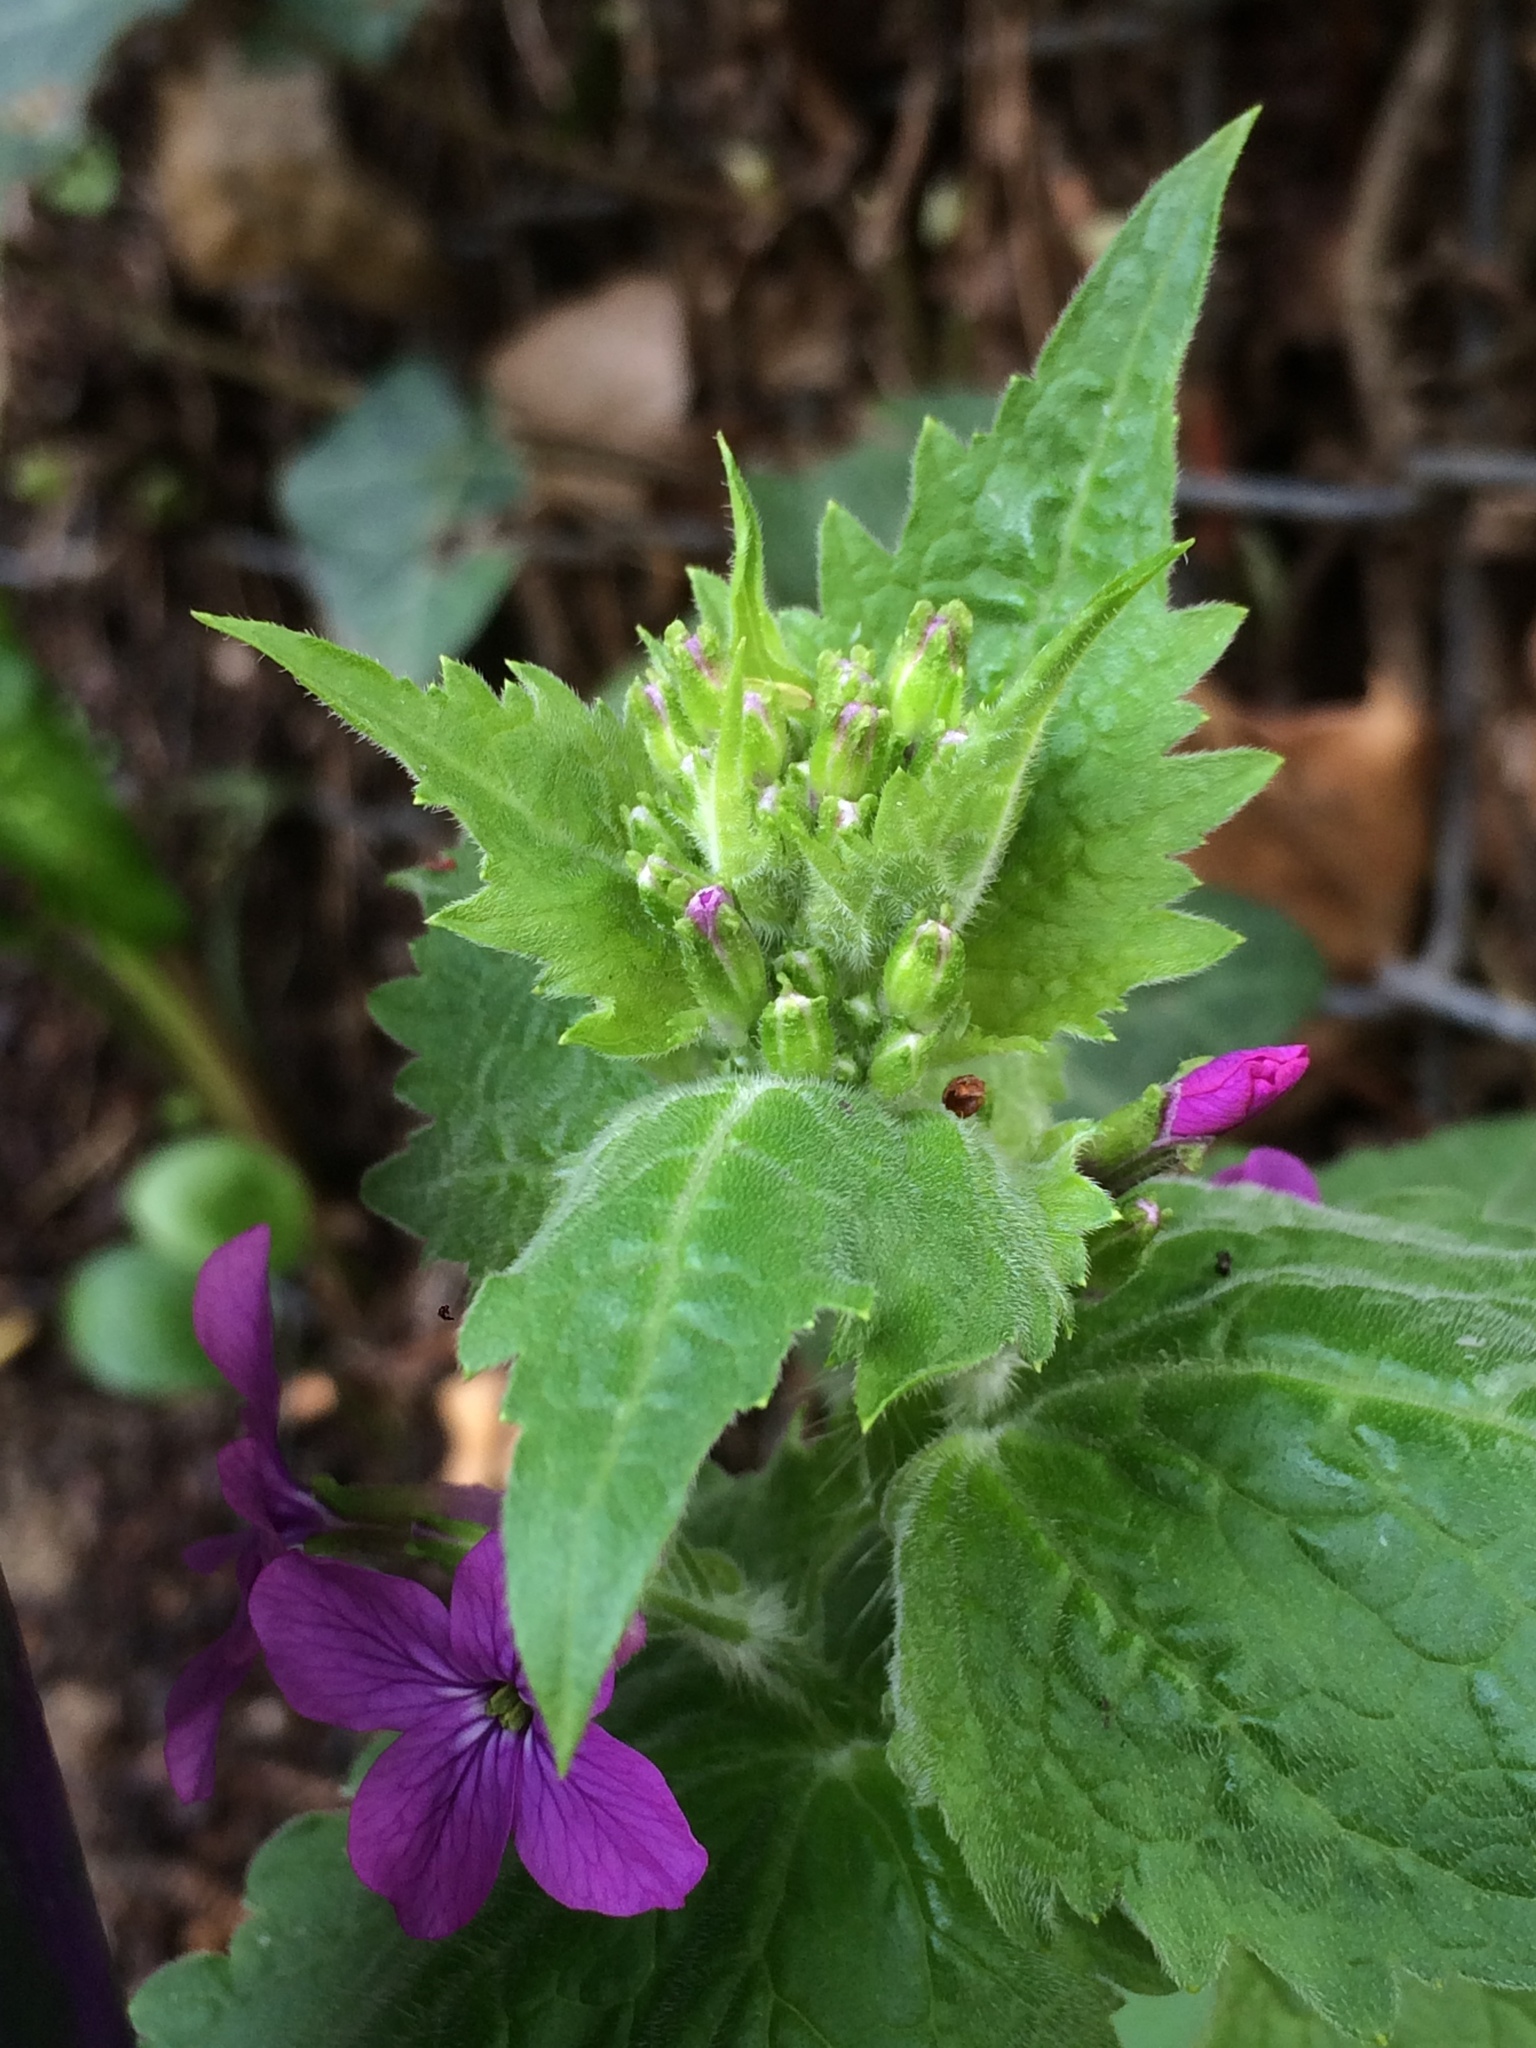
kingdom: Plantae
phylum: Tracheophyta
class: Magnoliopsida
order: Brassicales
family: Brassicaceae
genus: Lunaria
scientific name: Lunaria annua
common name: Honesty
